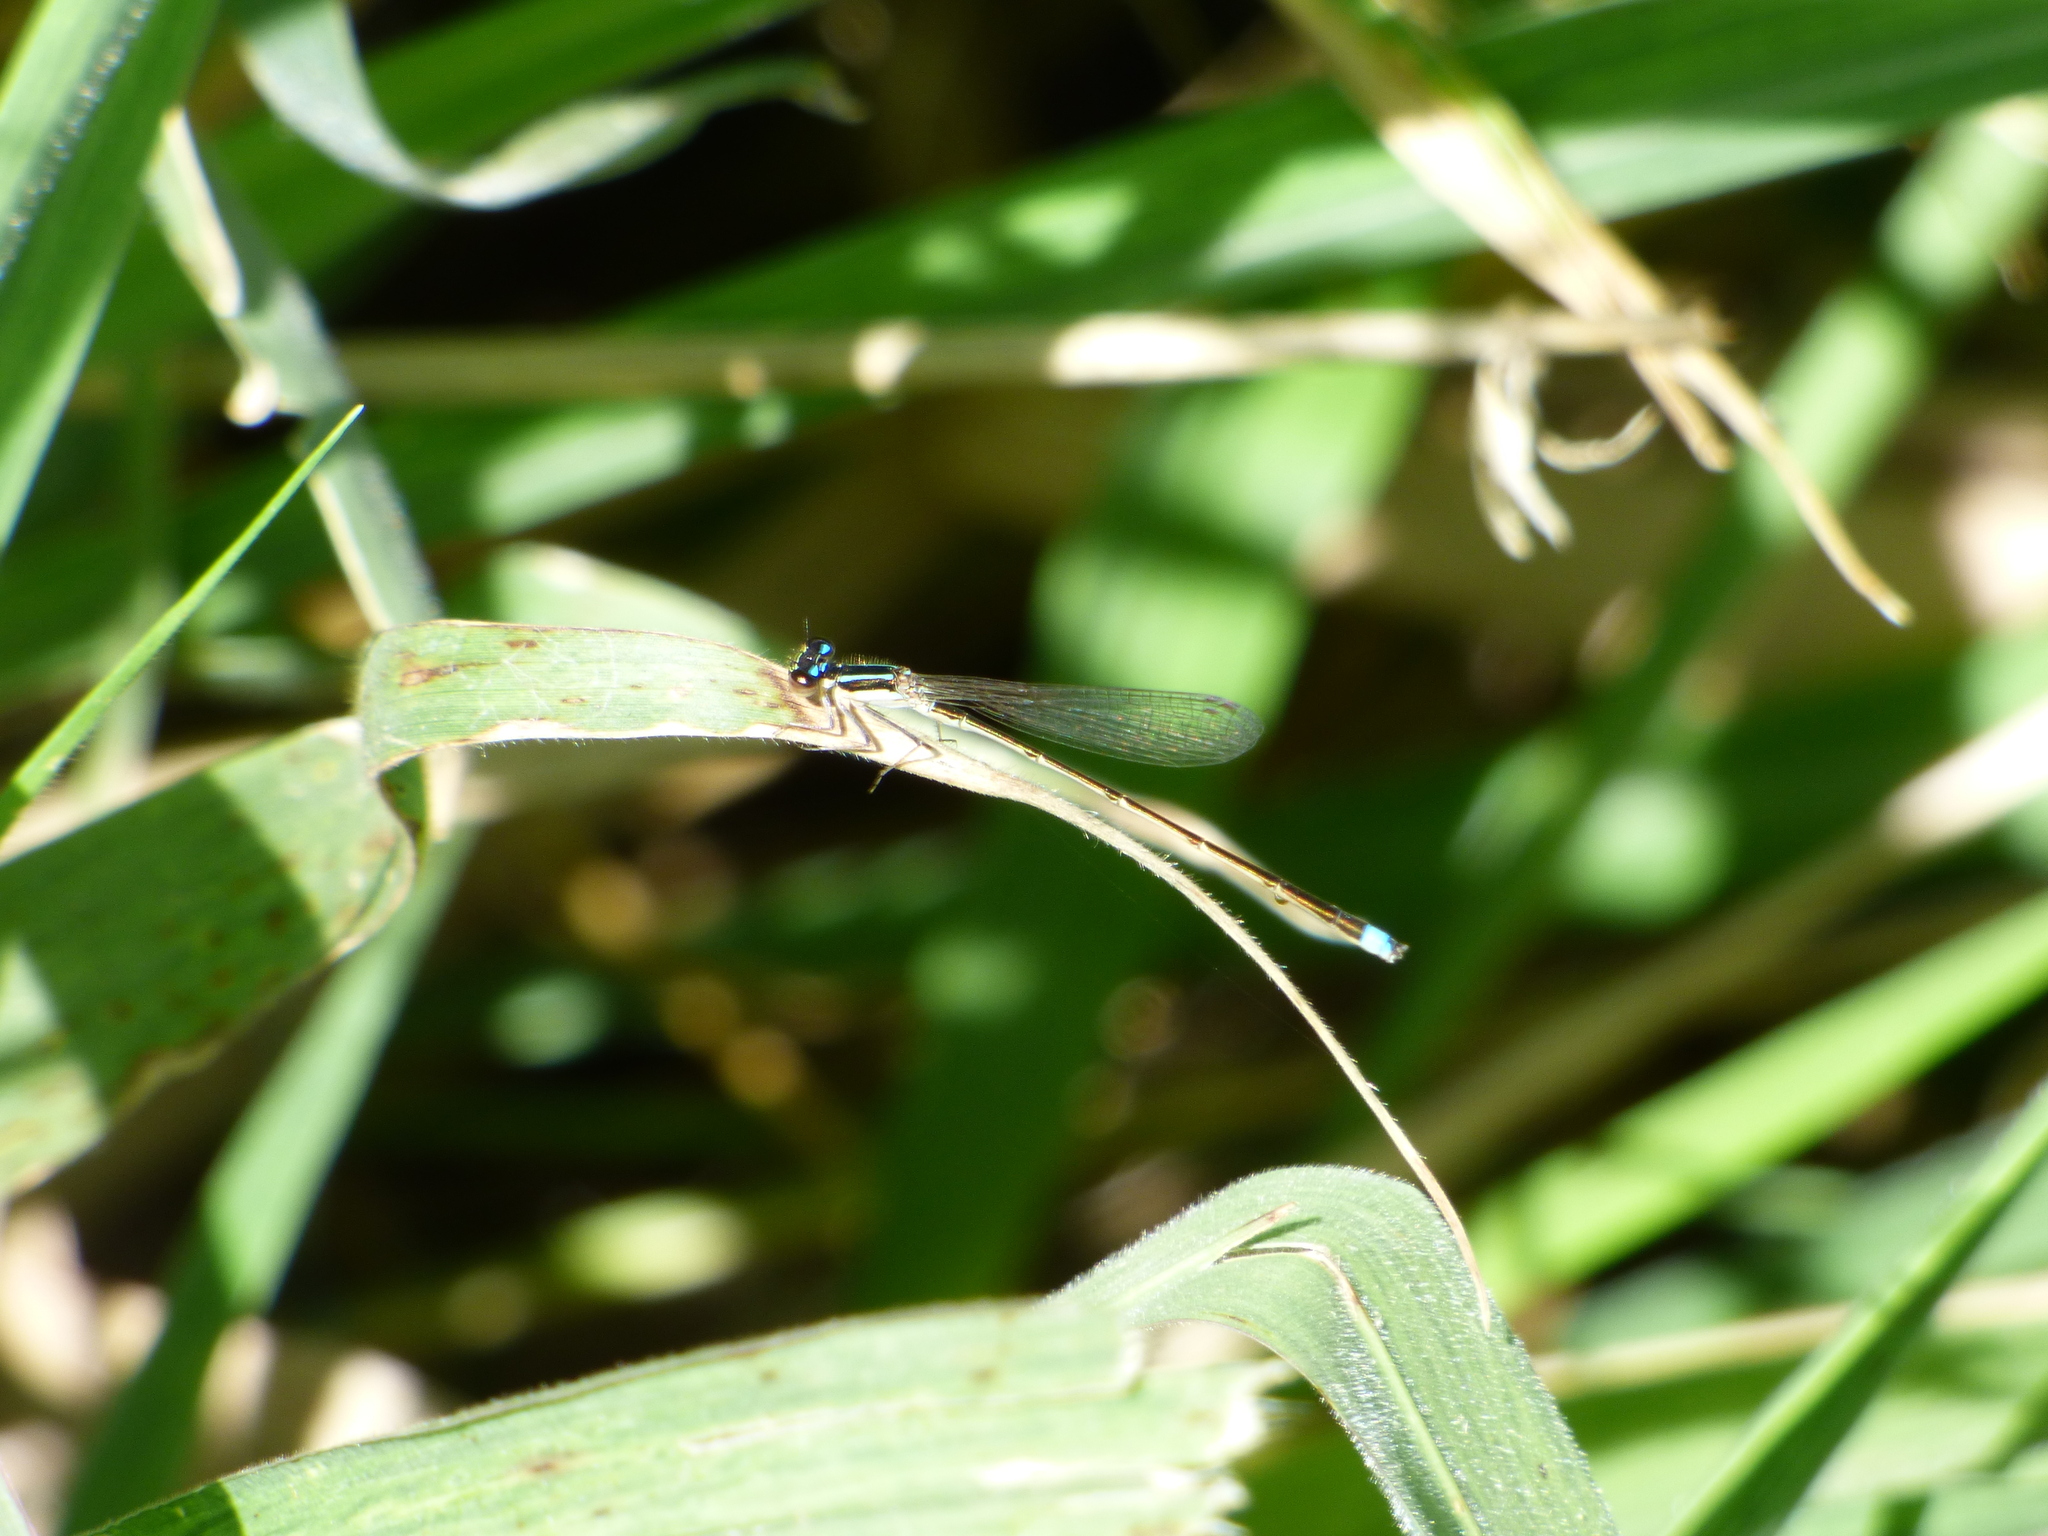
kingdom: Animalia
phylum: Arthropoda
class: Insecta
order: Odonata
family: Coenagrionidae
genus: Argentagrion
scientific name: Argentagrion ambiguum
